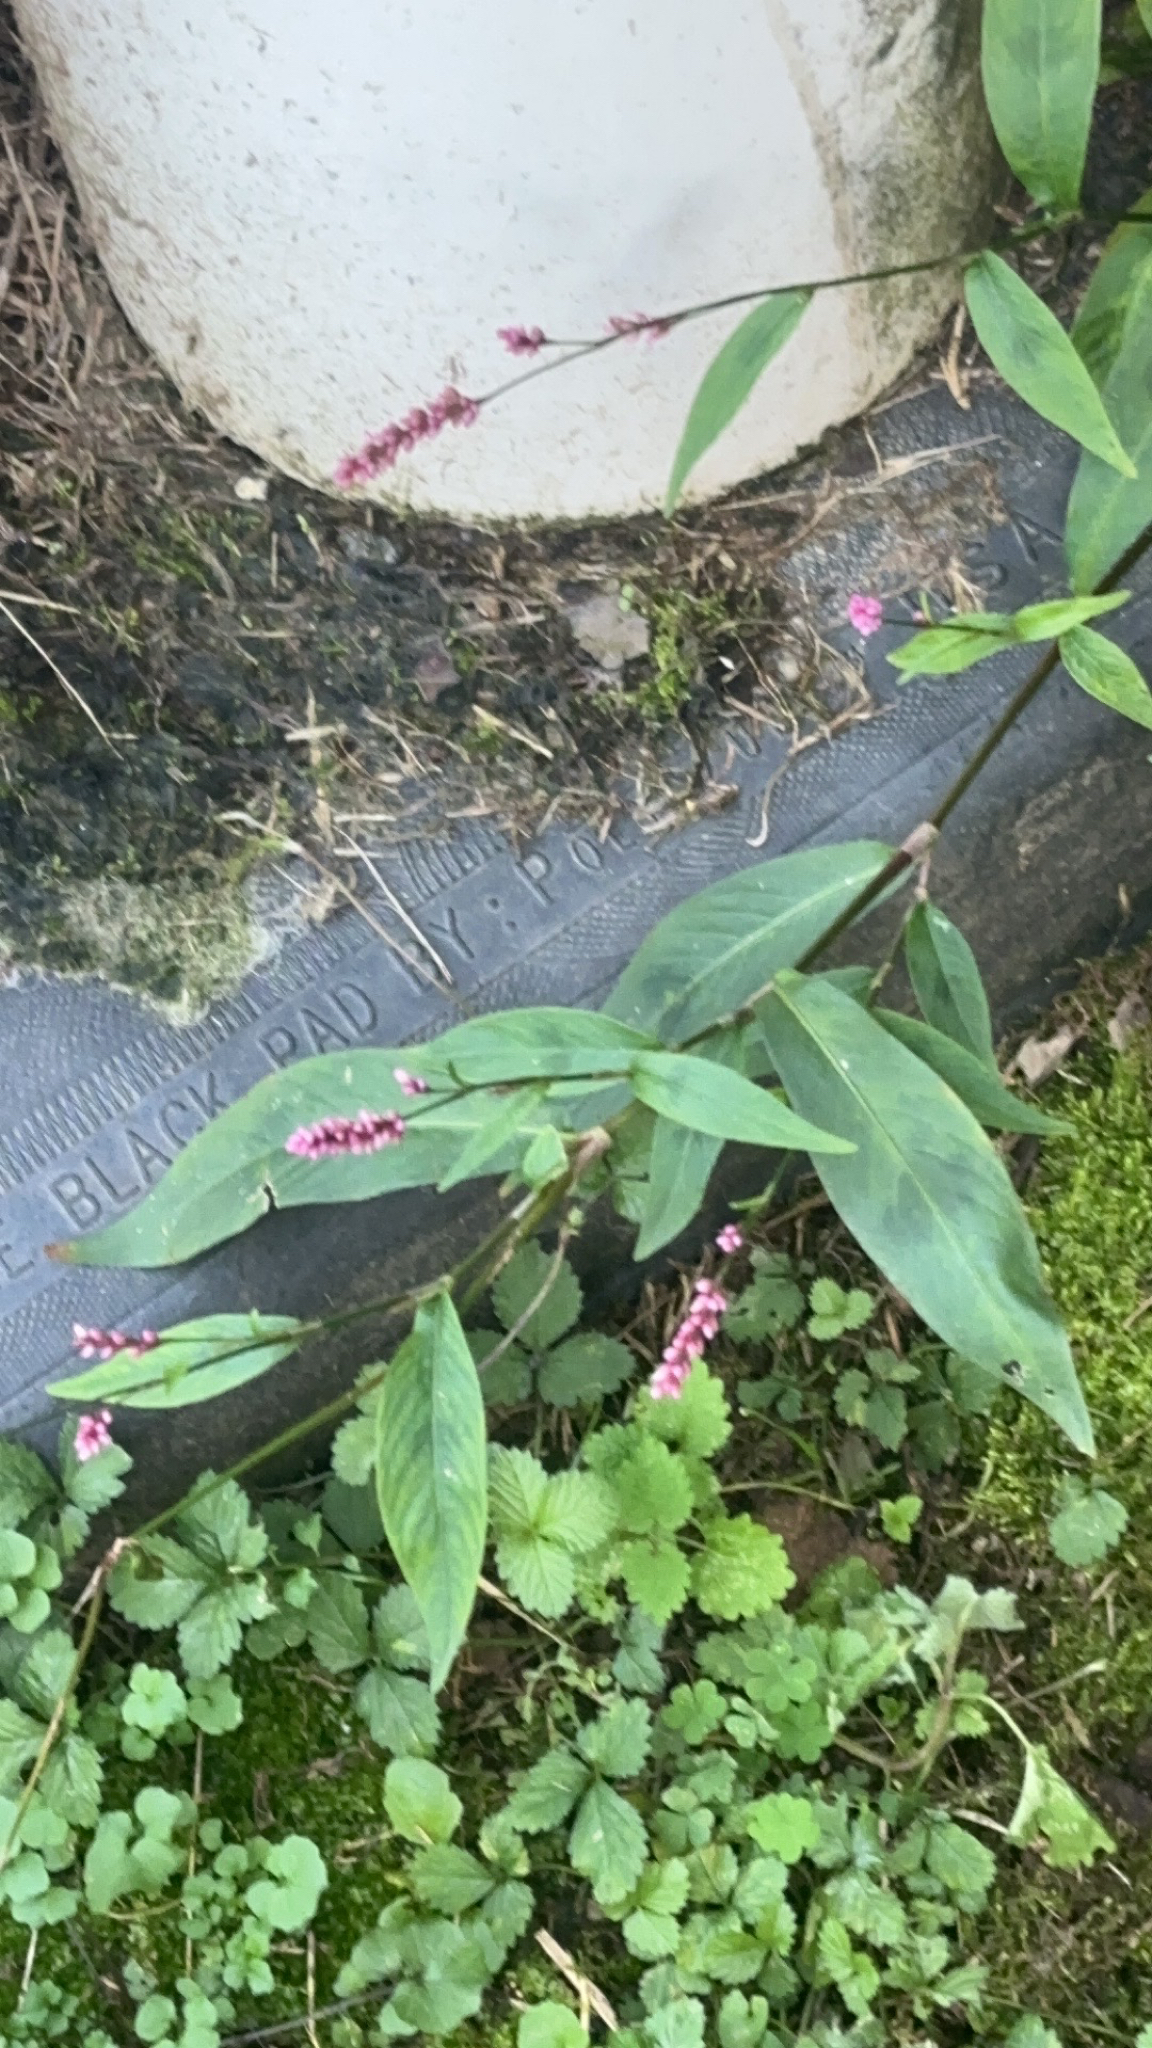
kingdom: Plantae
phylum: Tracheophyta
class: Magnoliopsida
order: Caryophyllales
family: Polygonaceae
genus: Persicaria
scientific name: Persicaria longiseta
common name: Bristly lady's-thumb
